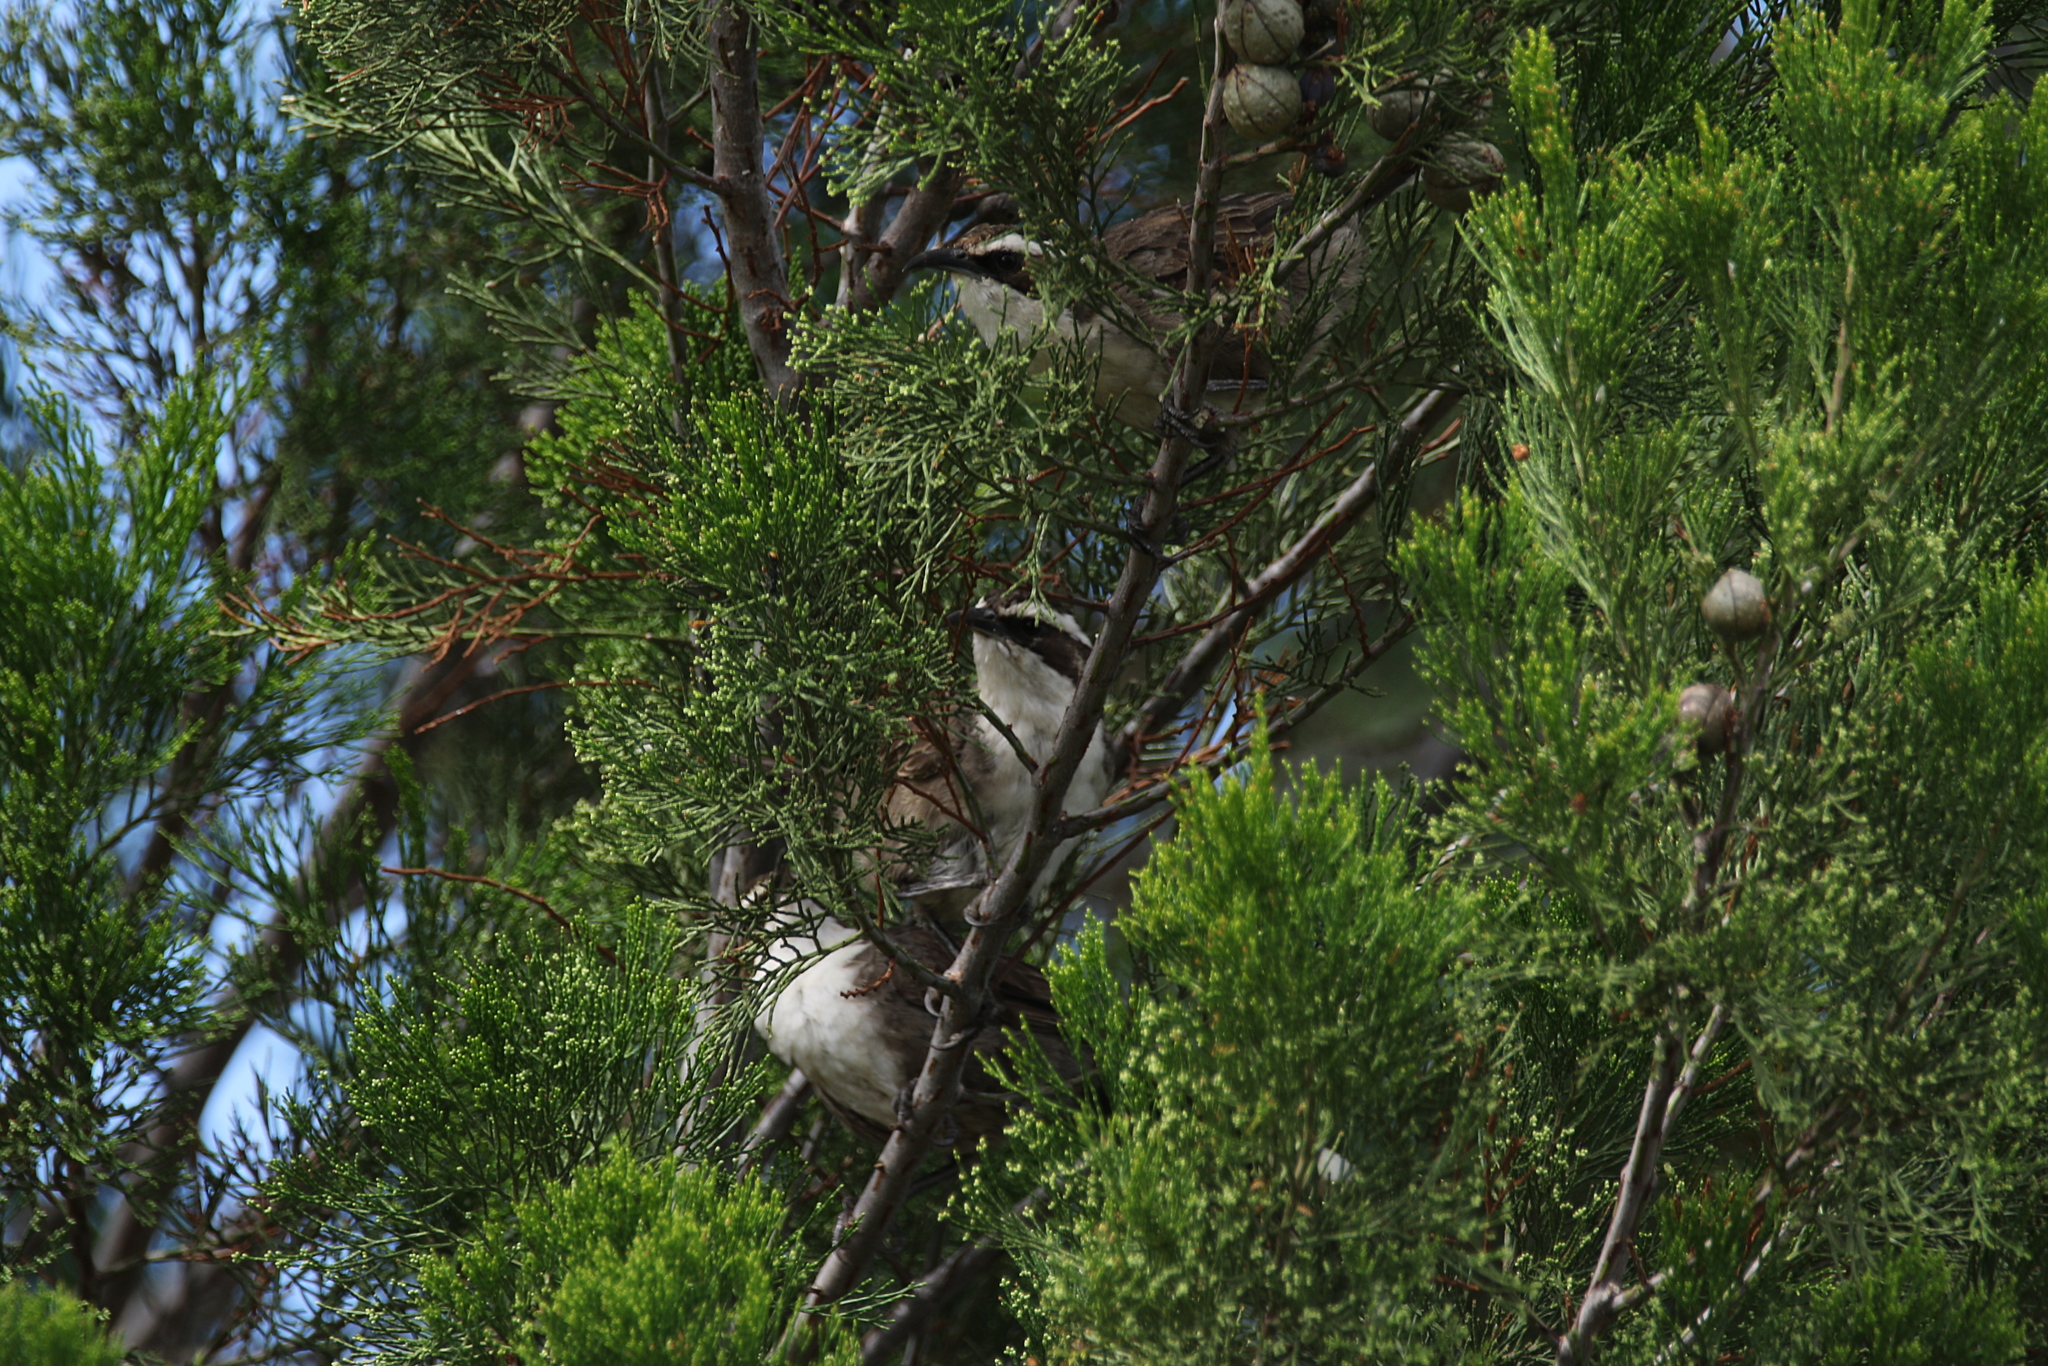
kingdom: Animalia
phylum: Chordata
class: Aves
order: Passeriformes
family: Pomatostomidae
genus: Pomatostomus
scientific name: Pomatostomus superciliosus
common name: White-browed babbler
